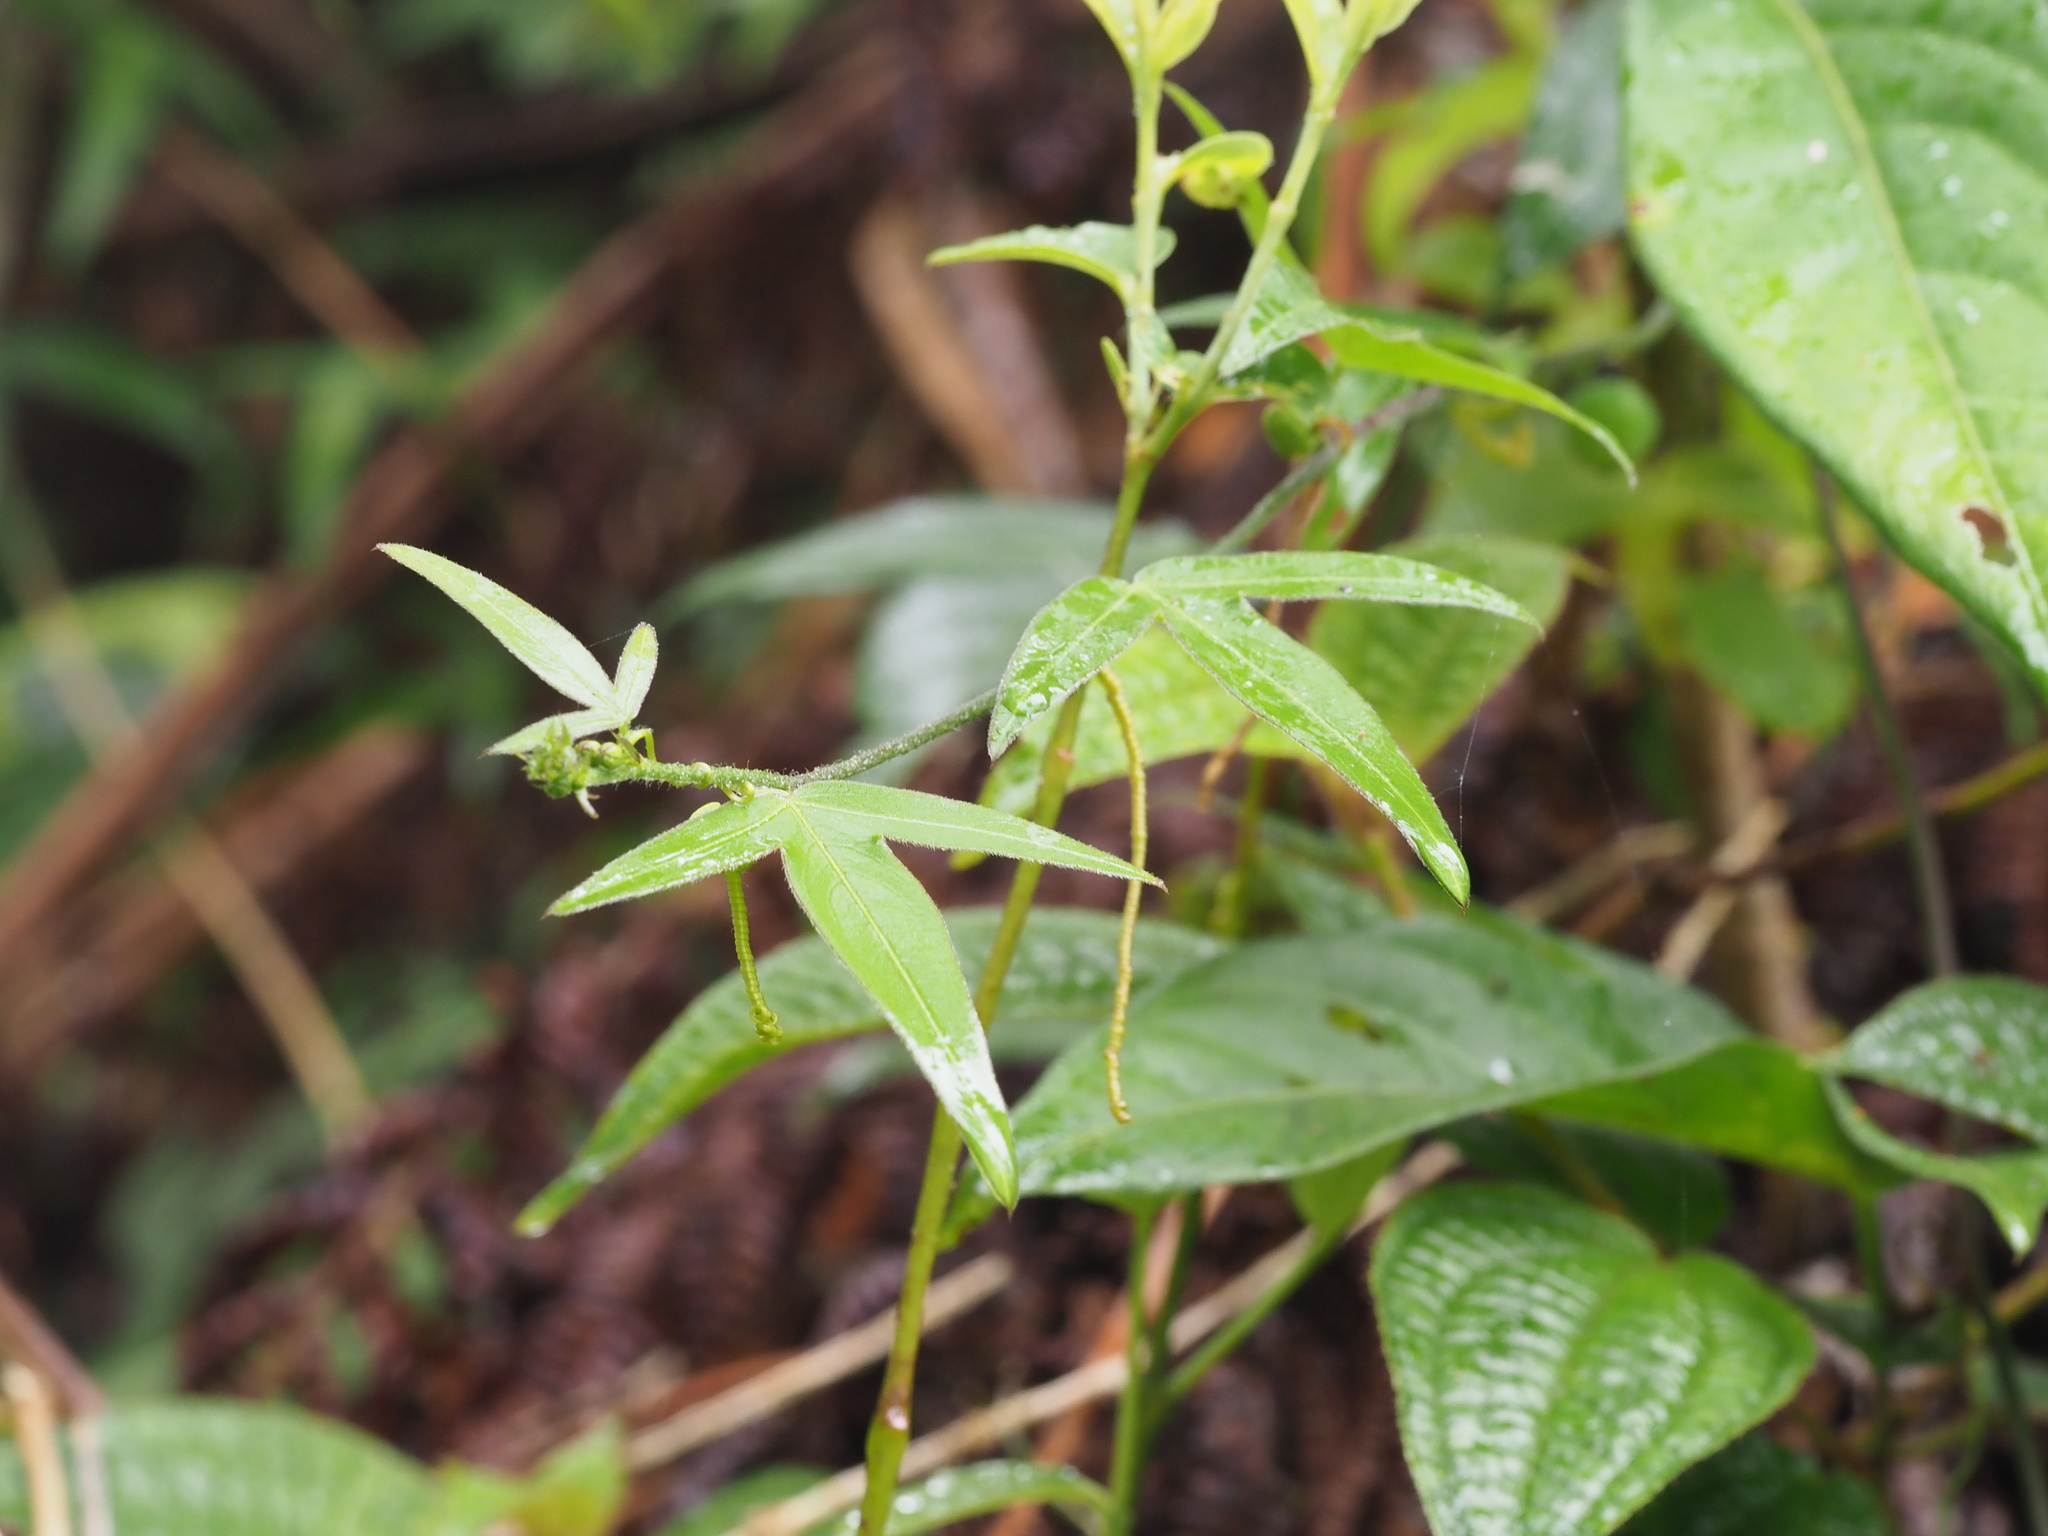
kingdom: Plantae
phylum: Tracheophyta
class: Magnoliopsida
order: Malpighiales
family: Passifloraceae
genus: Passiflora
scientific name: Passiflora suberosa
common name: Wild passionfruit
